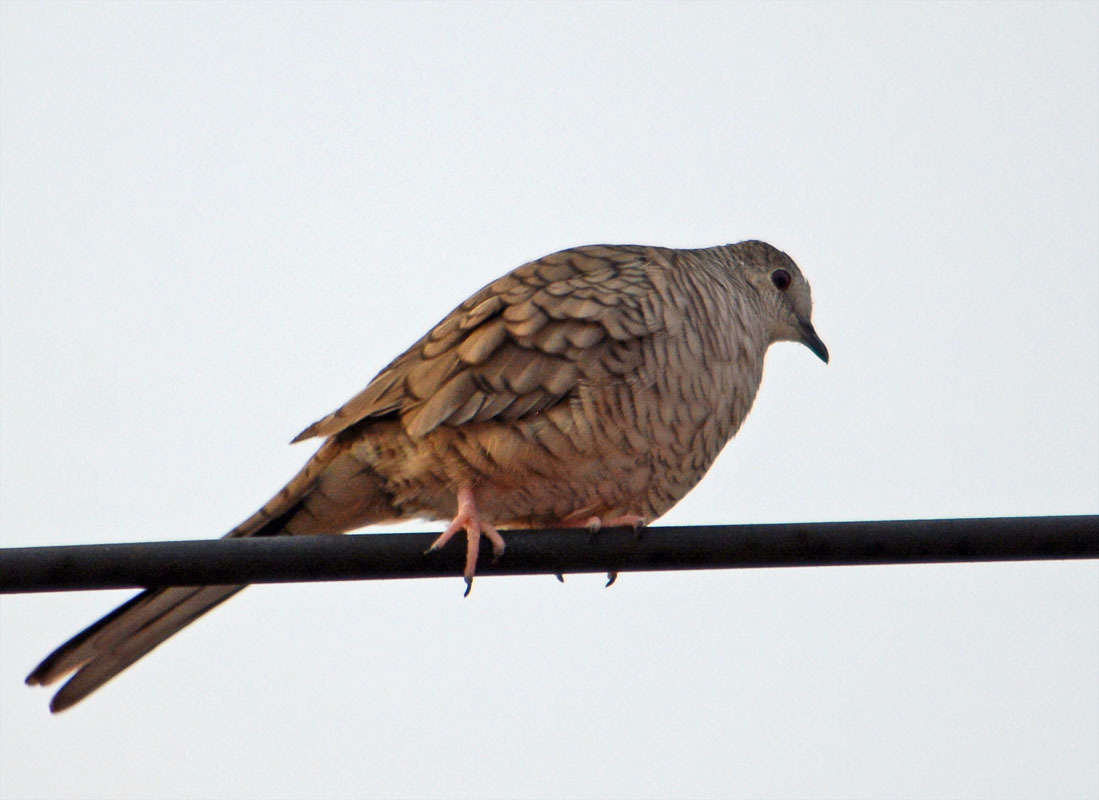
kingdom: Animalia
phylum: Chordata
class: Aves
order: Columbiformes
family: Columbidae
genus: Columbina
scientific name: Columbina inca
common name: Inca dove
